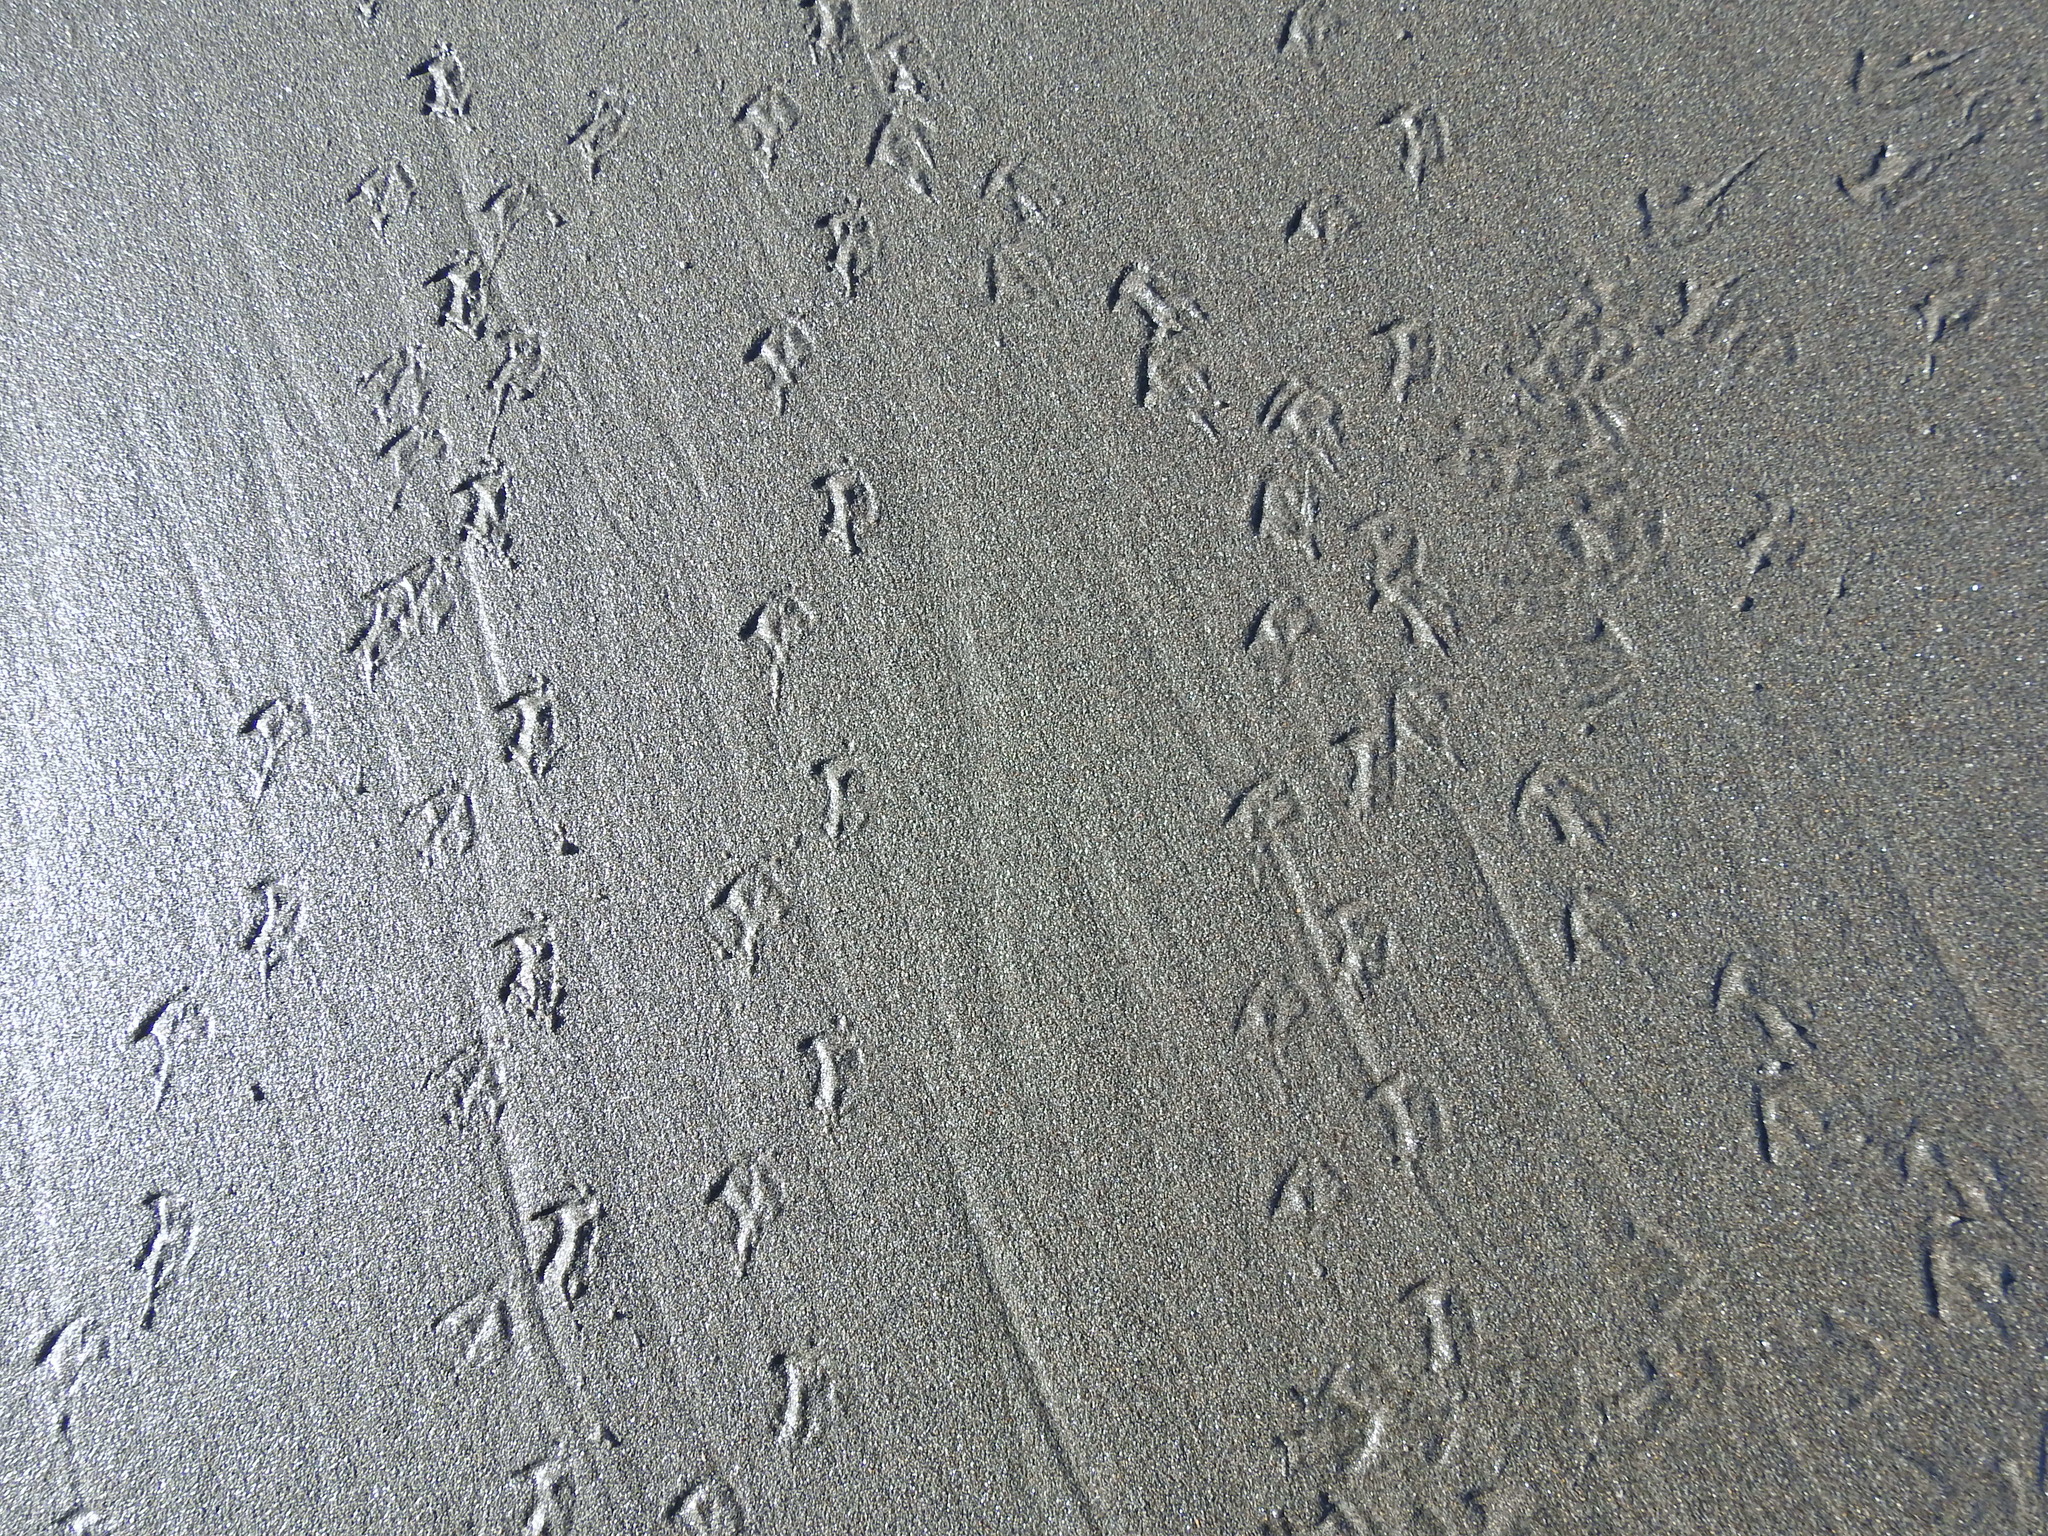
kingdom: Animalia
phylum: Chordata
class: Aves
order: Charadriiformes
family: Laridae
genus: Sterna
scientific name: Sterna striata
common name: White-fronted tern
